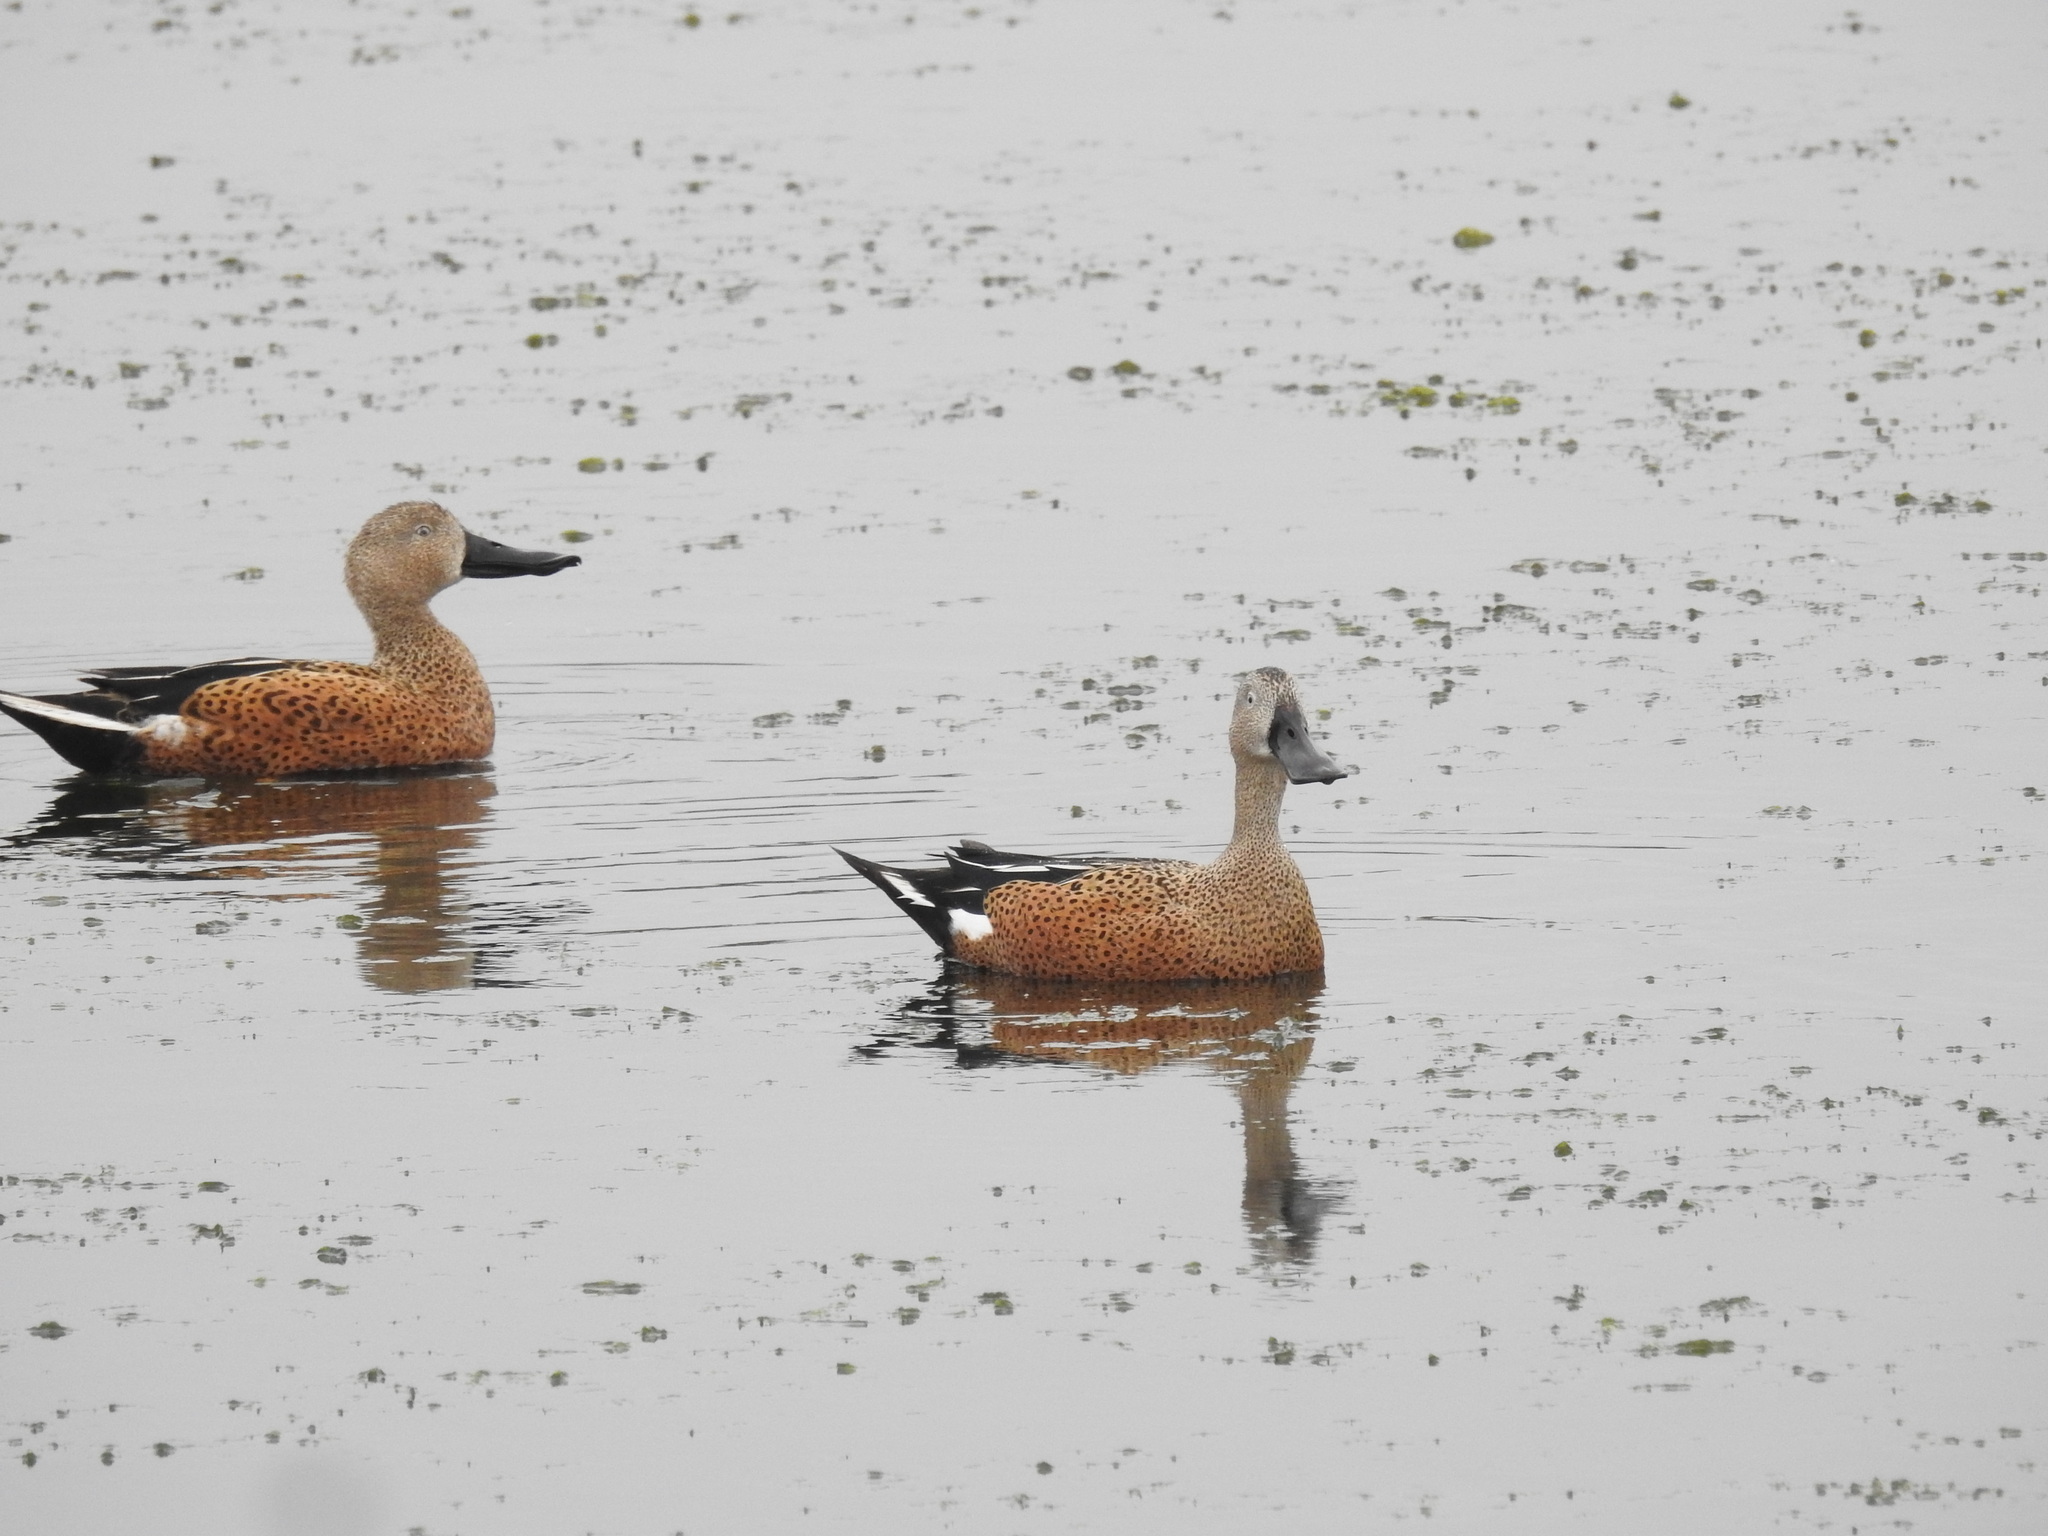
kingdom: Animalia
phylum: Chordata
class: Aves
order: Anseriformes
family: Anatidae
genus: Spatula
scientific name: Spatula platalea
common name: Red shoveler
